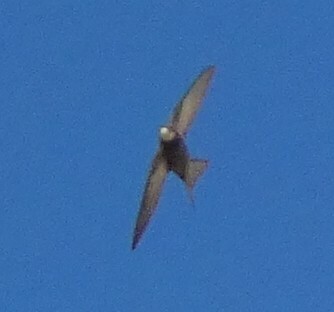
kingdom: Animalia
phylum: Chordata
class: Aves
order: Apodiformes
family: Apodidae
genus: Apus
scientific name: Apus pallidus
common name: Pallid swift
